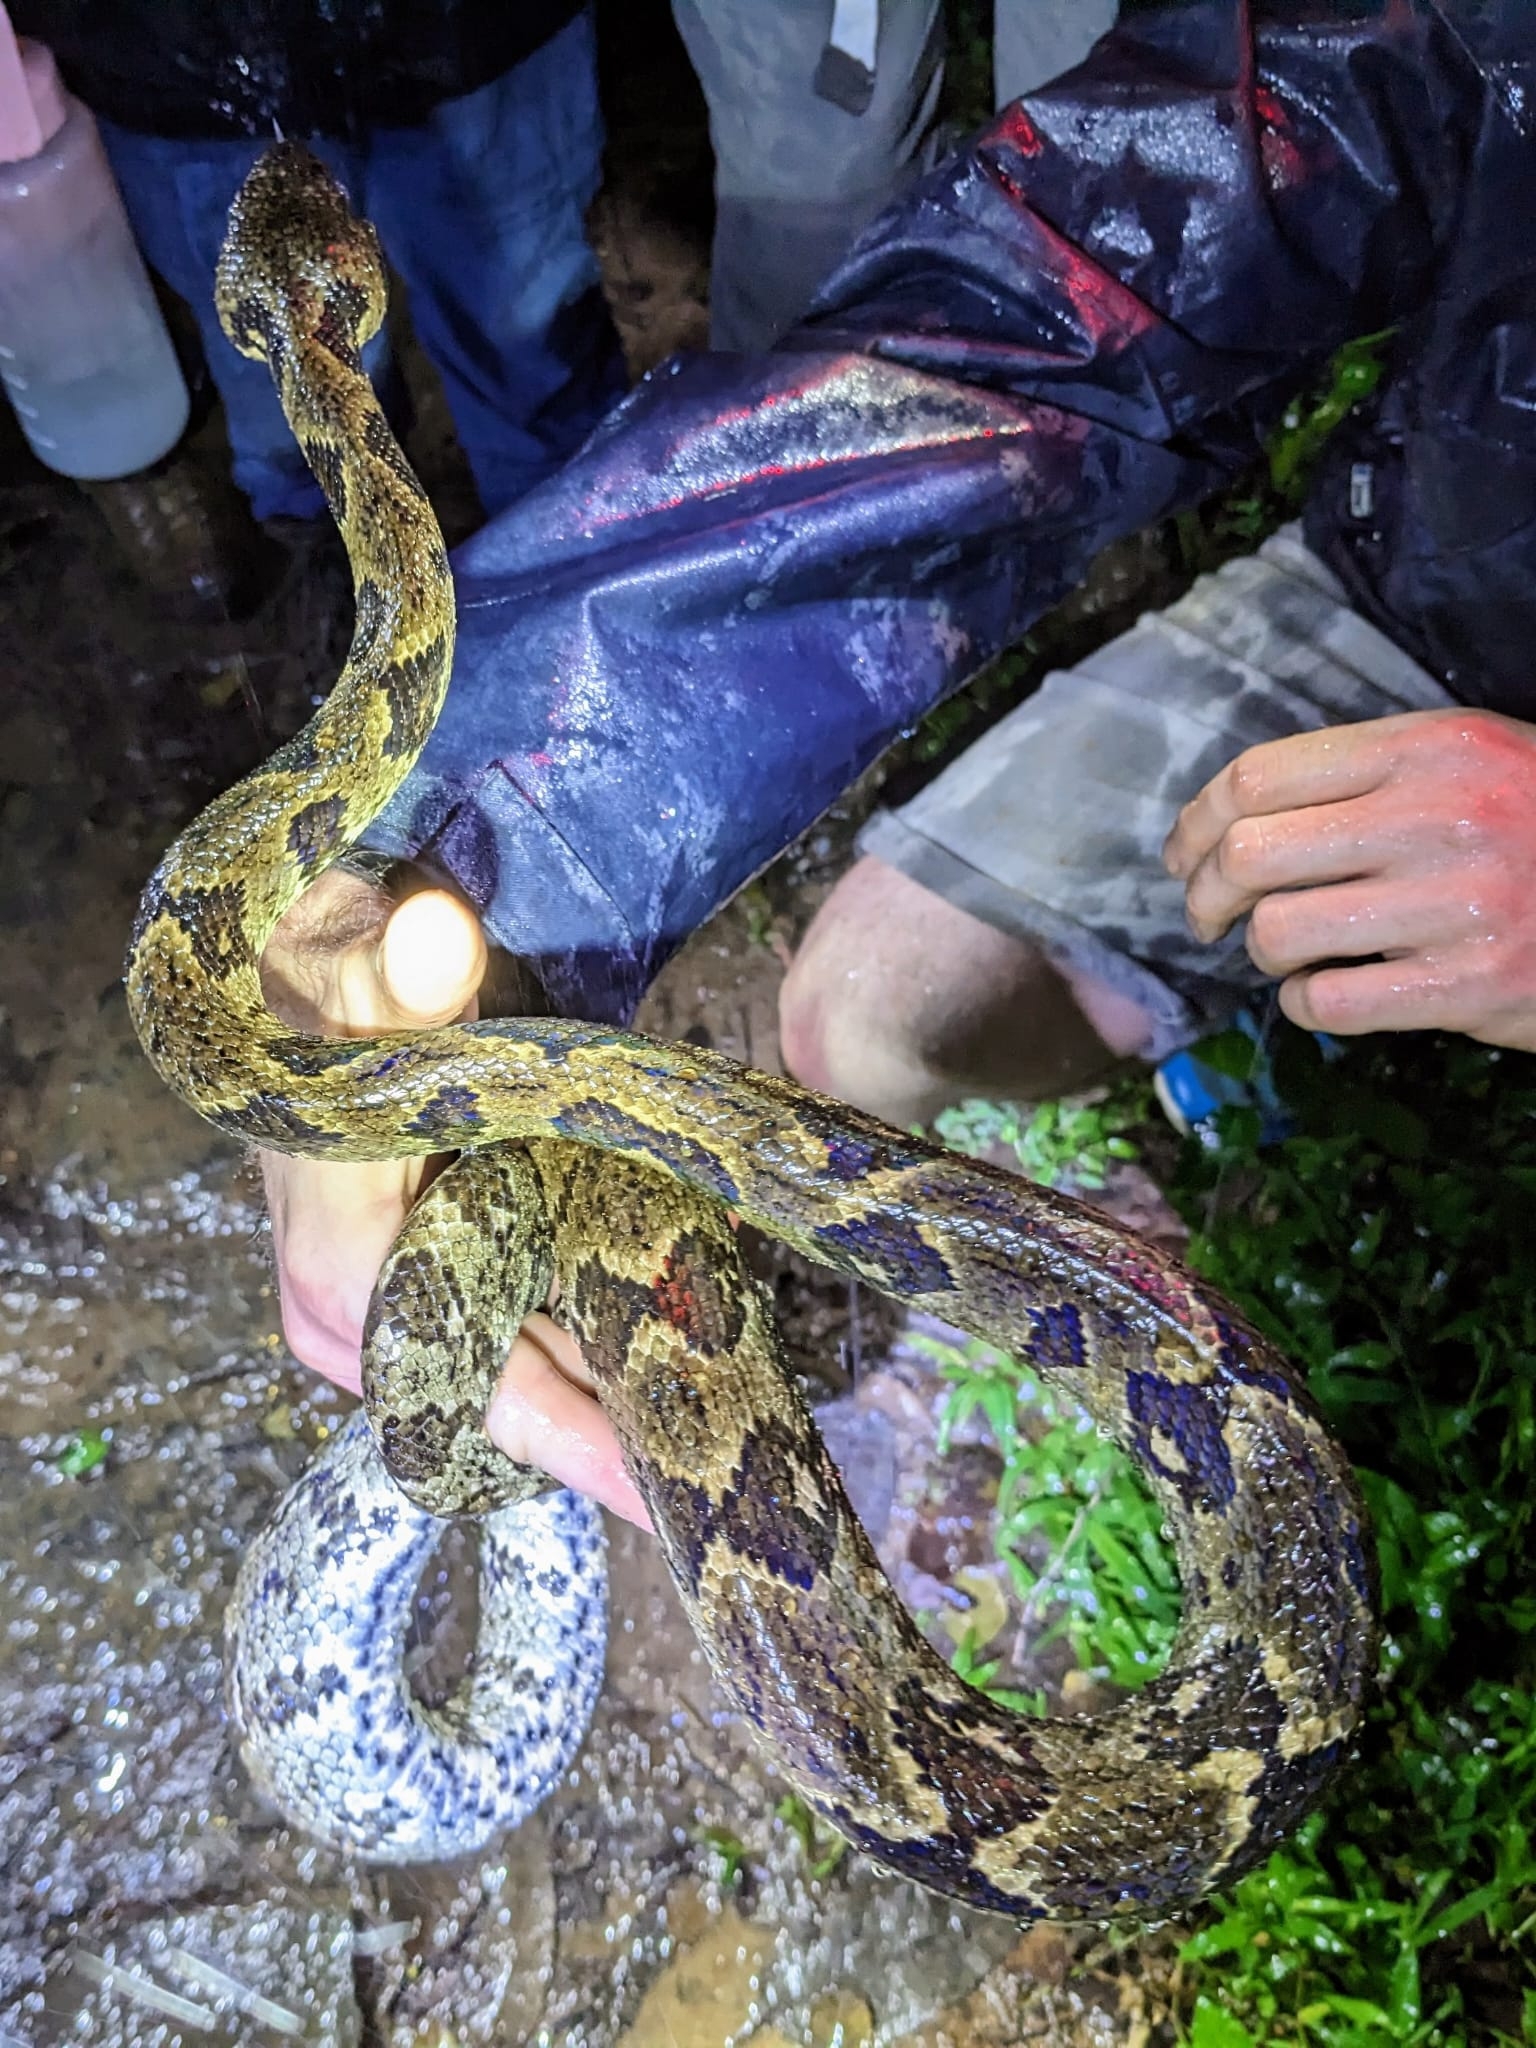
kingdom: Animalia
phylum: Chordata
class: Squamata
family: Boidae
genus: Sanzinia
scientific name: Sanzinia madagascariensis
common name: Madagascar tree boa
